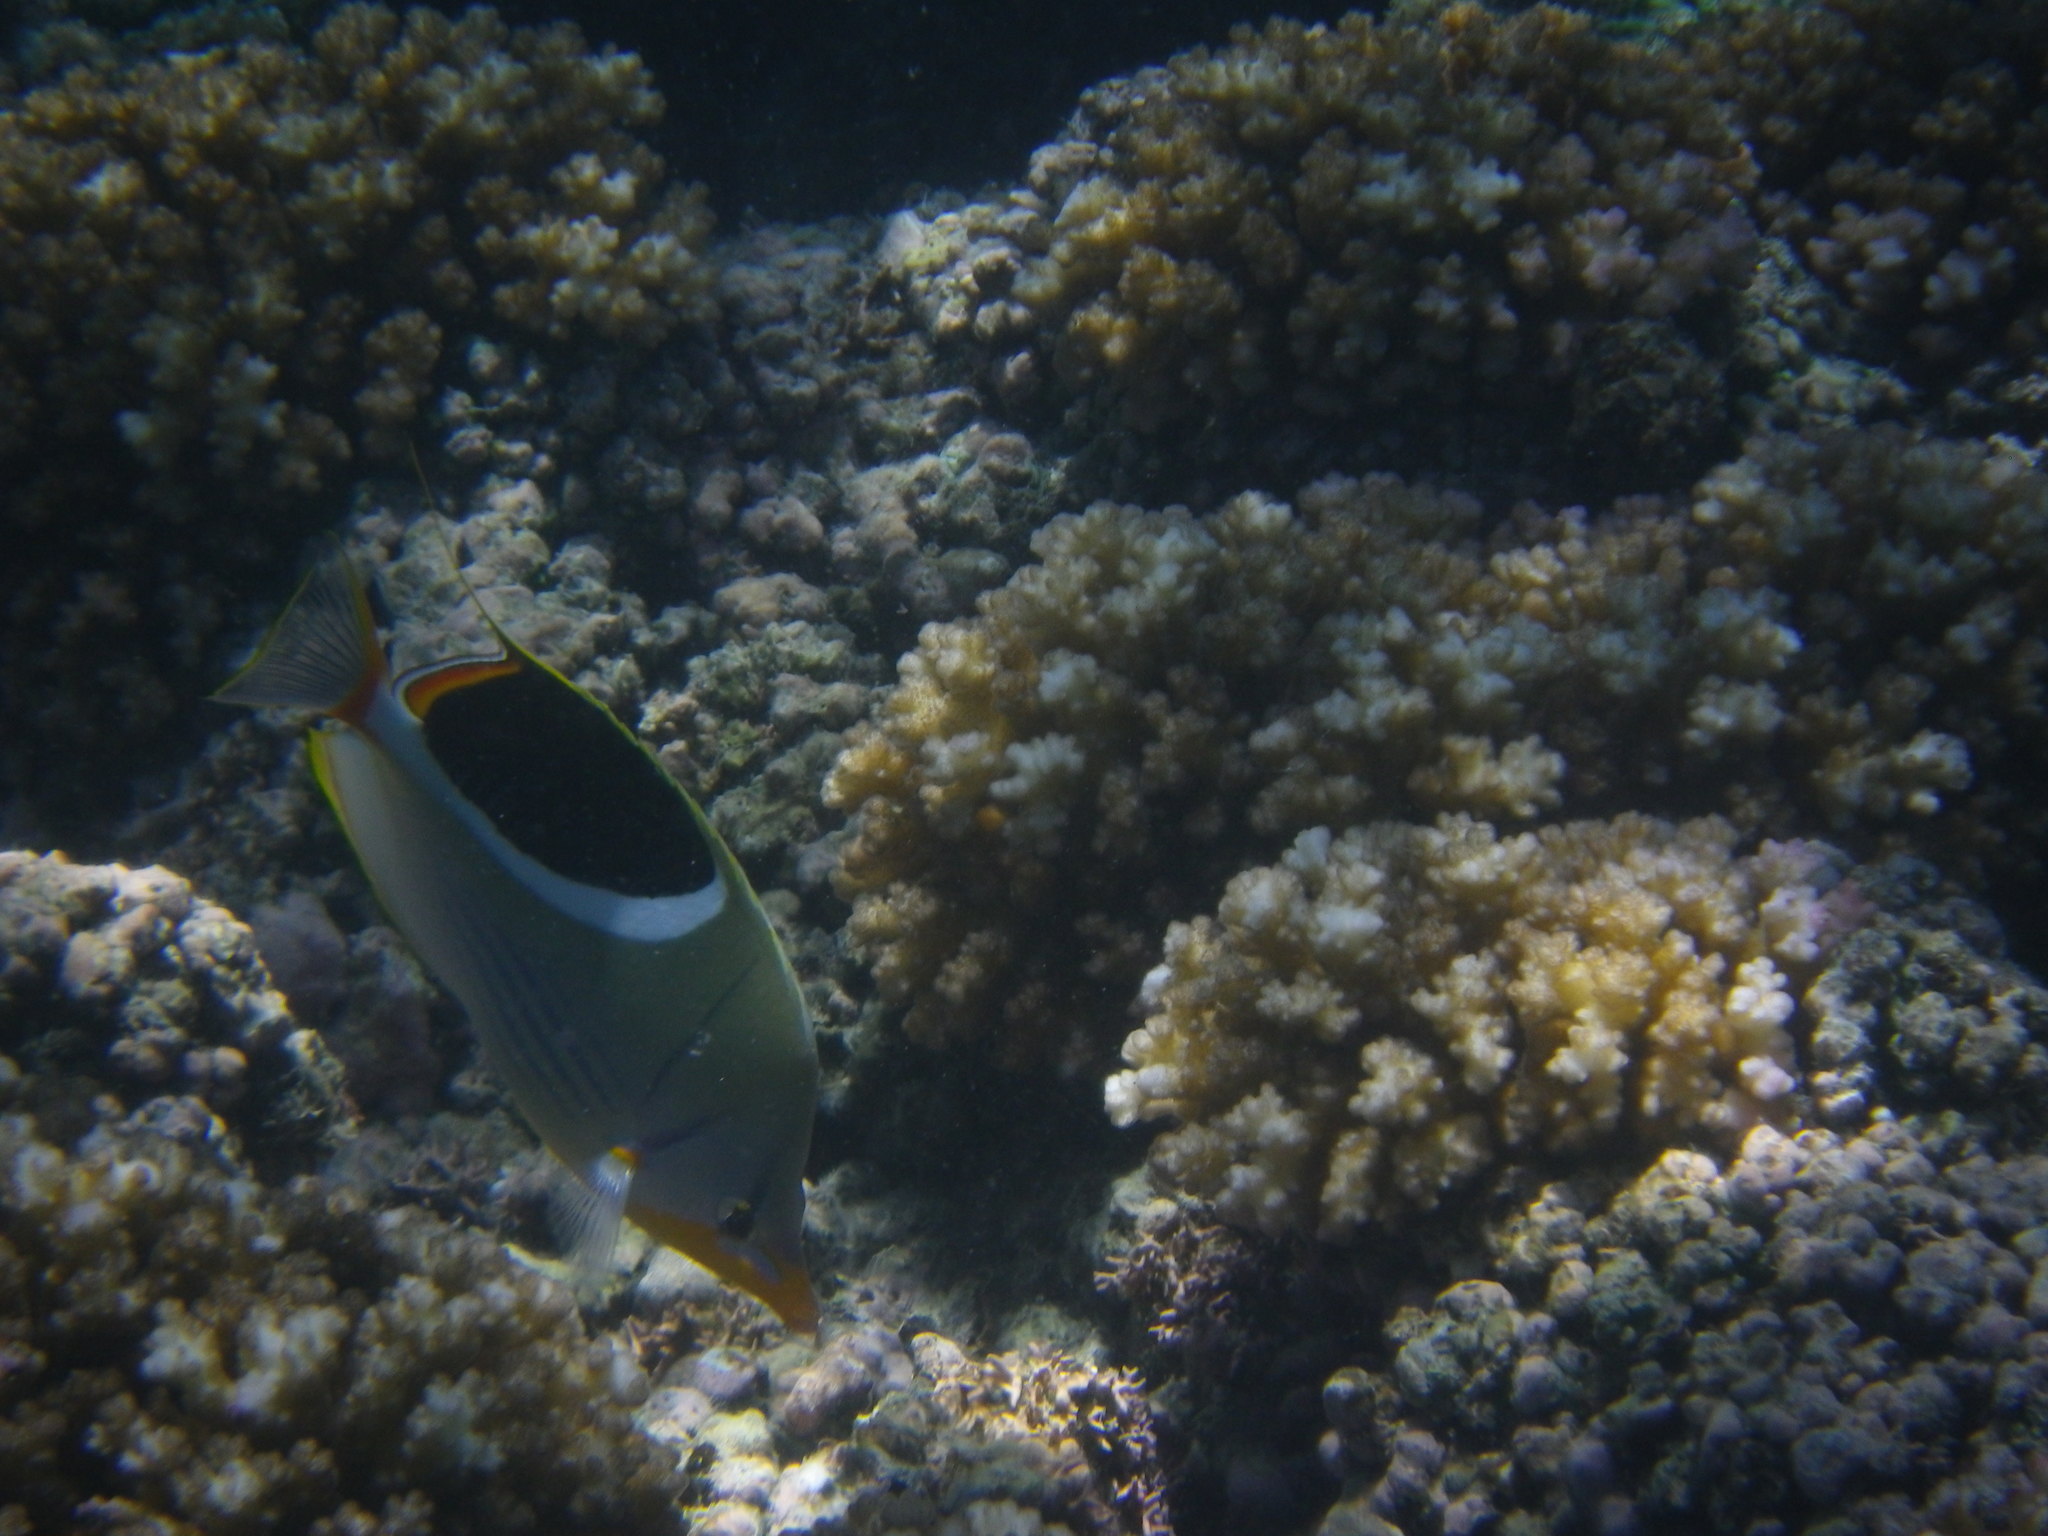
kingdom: Animalia
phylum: Chordata
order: Perciformes
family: Chaetodontidae
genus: Chaetodon
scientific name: Chaetodon ephippium
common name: Saddled butterflyfish
